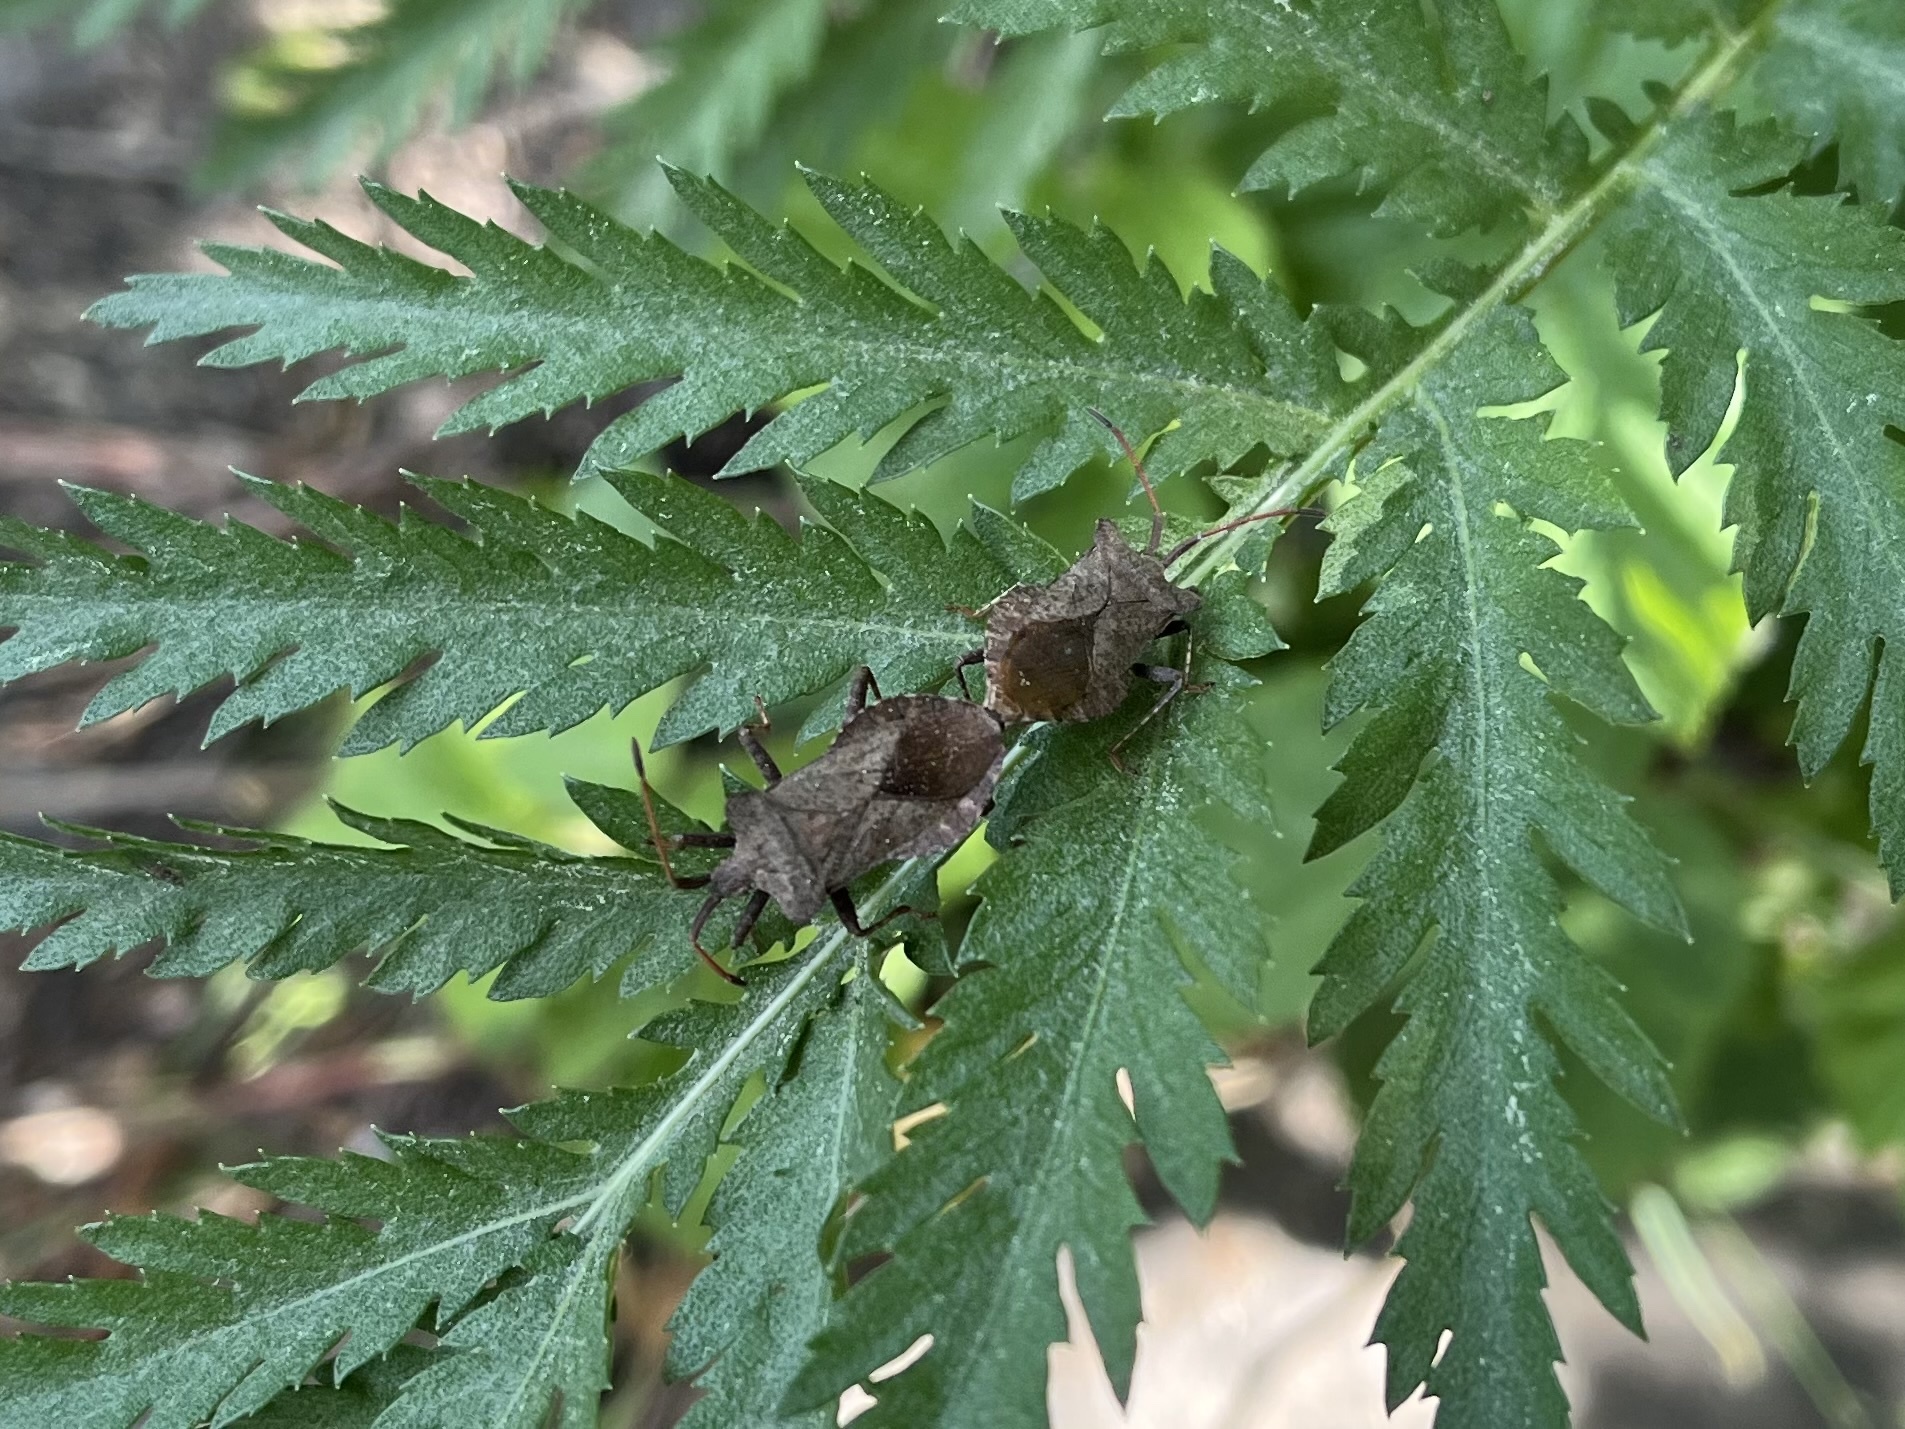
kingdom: Animalia
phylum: Arthropoda
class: Insecta
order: Hemiptera
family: Coreidae
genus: Coreus
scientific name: Coreus marginatus
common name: Dock bug
